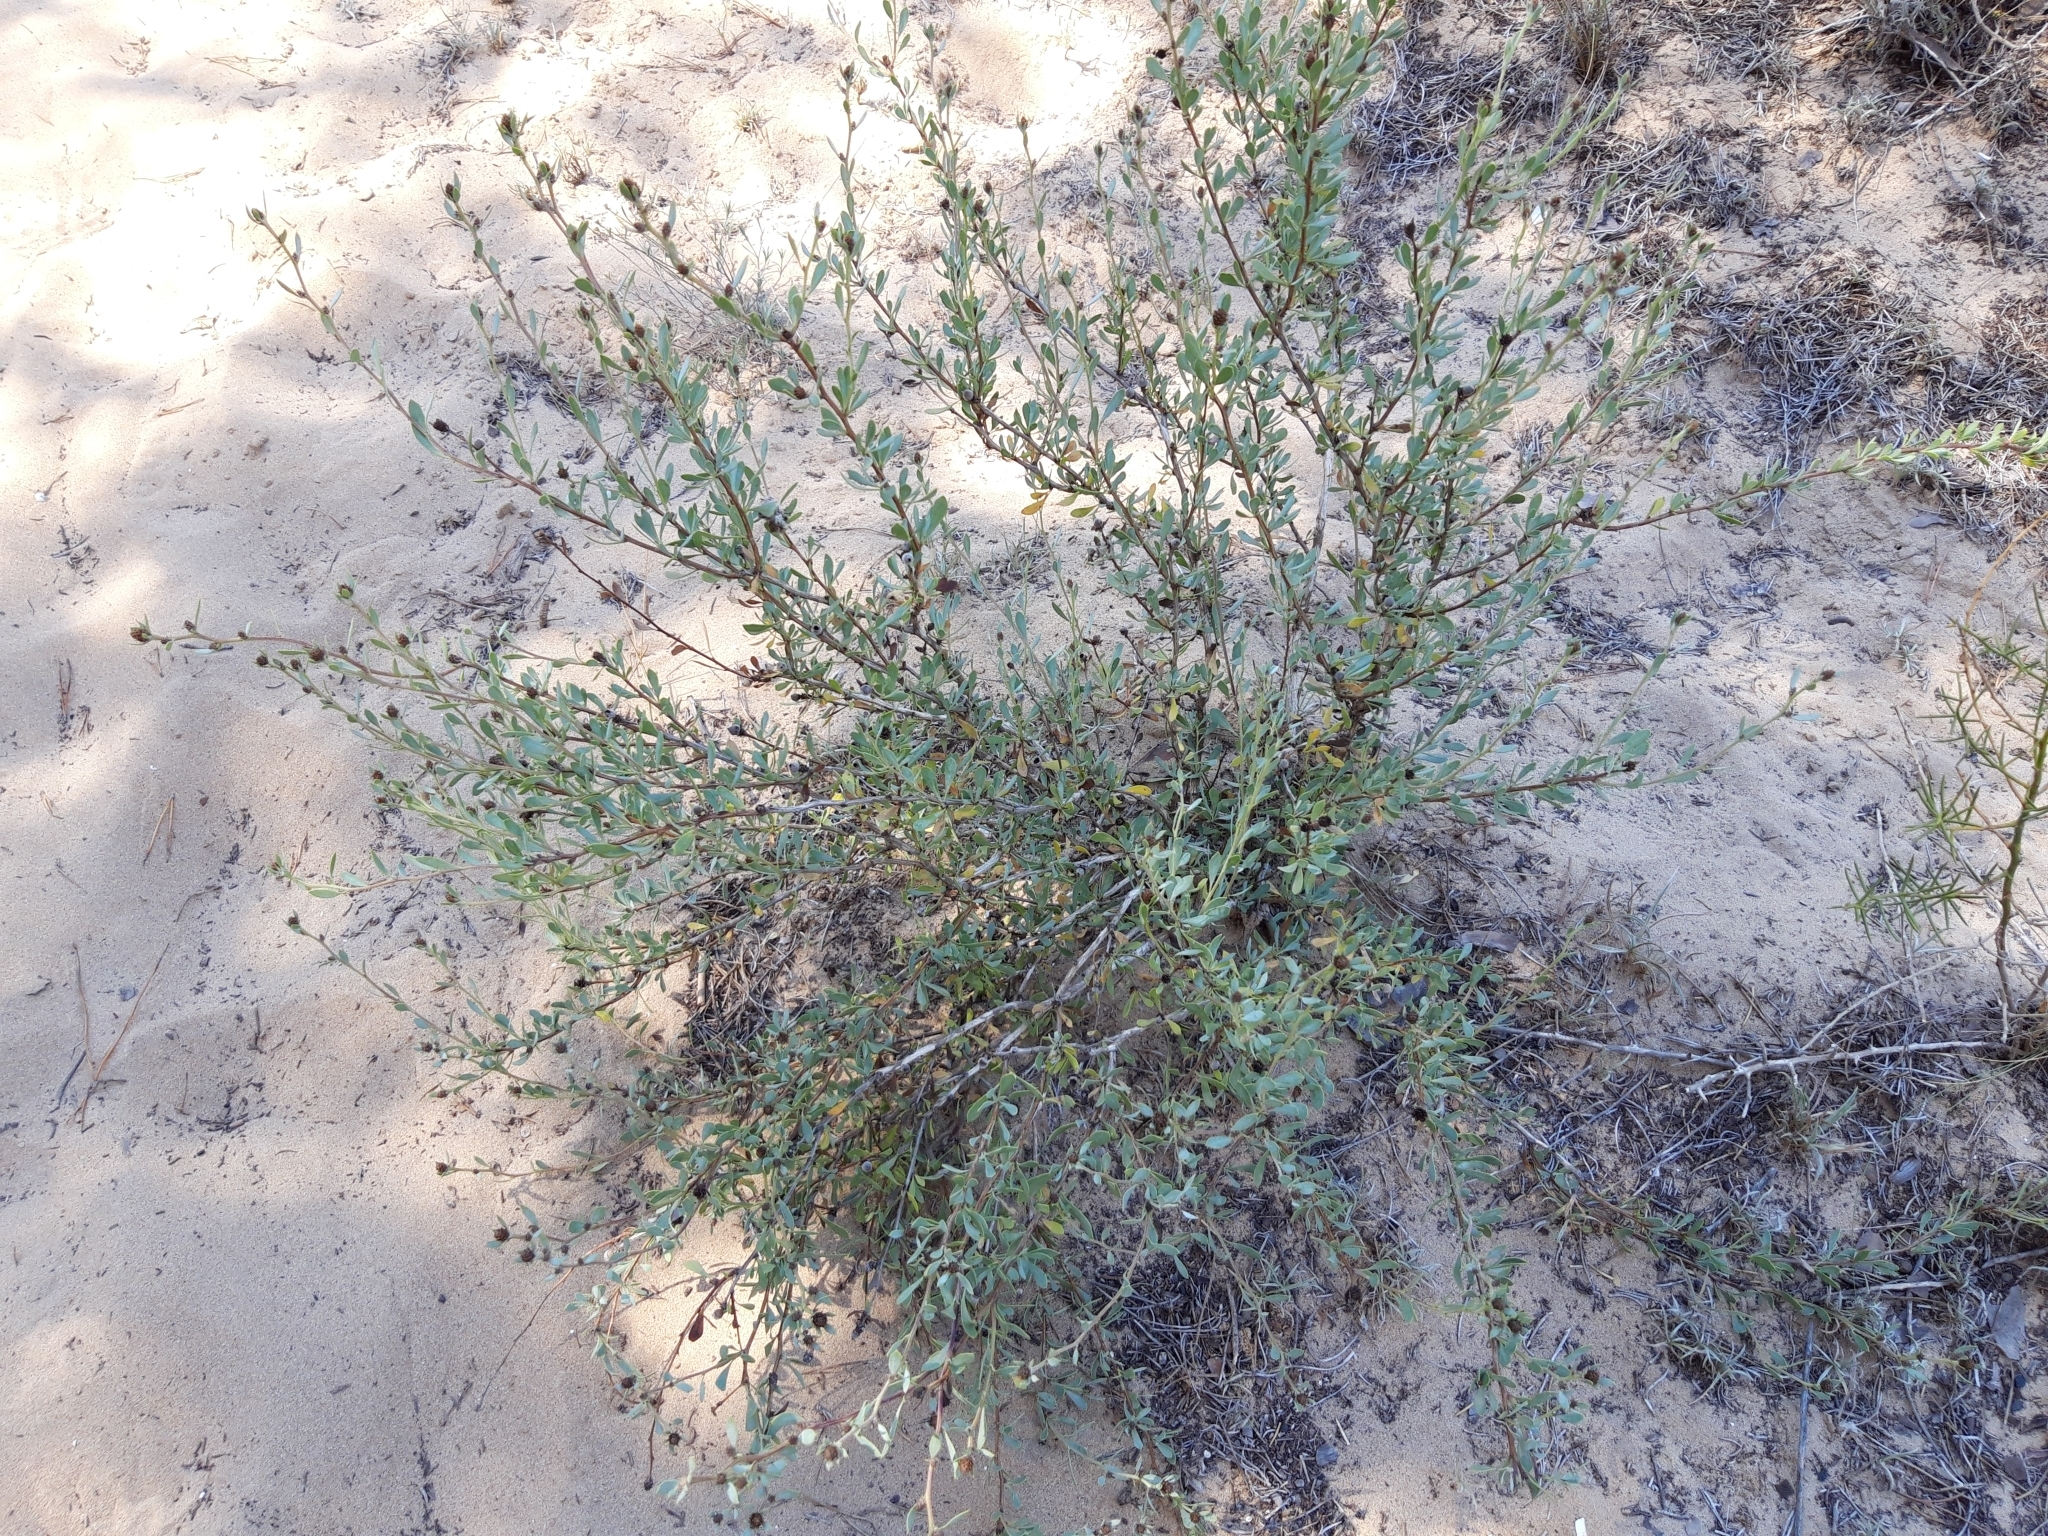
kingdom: Plantae
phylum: Tracheophyta
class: Magnoliopsida
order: Lamiales
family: Plantaginaceae
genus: Globularia
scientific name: Globularia alypum
